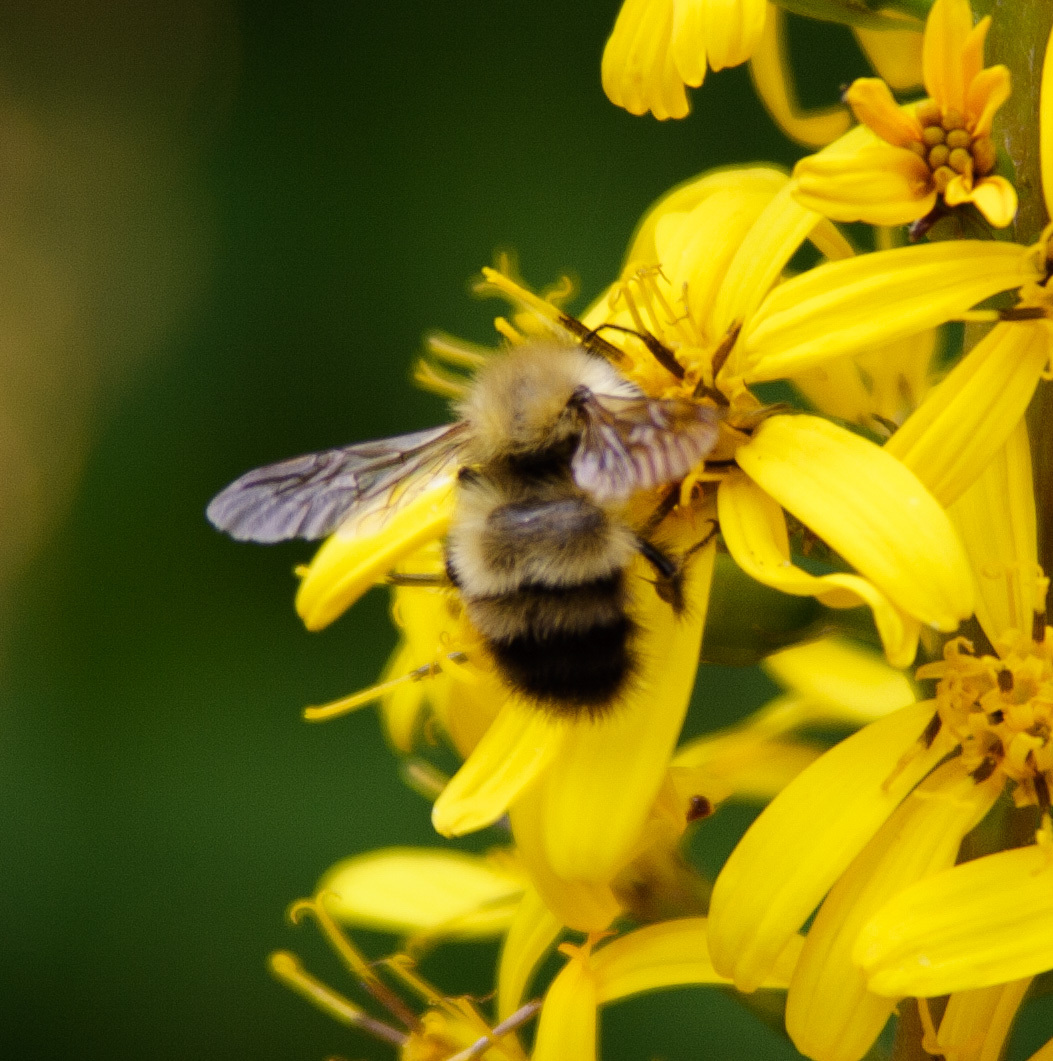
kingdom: Animalia
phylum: Arthropoda
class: Insecta
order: Hymenoptera
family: Apidae
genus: Bombus
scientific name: Bombus perplexus
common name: Confusing bumble bee
